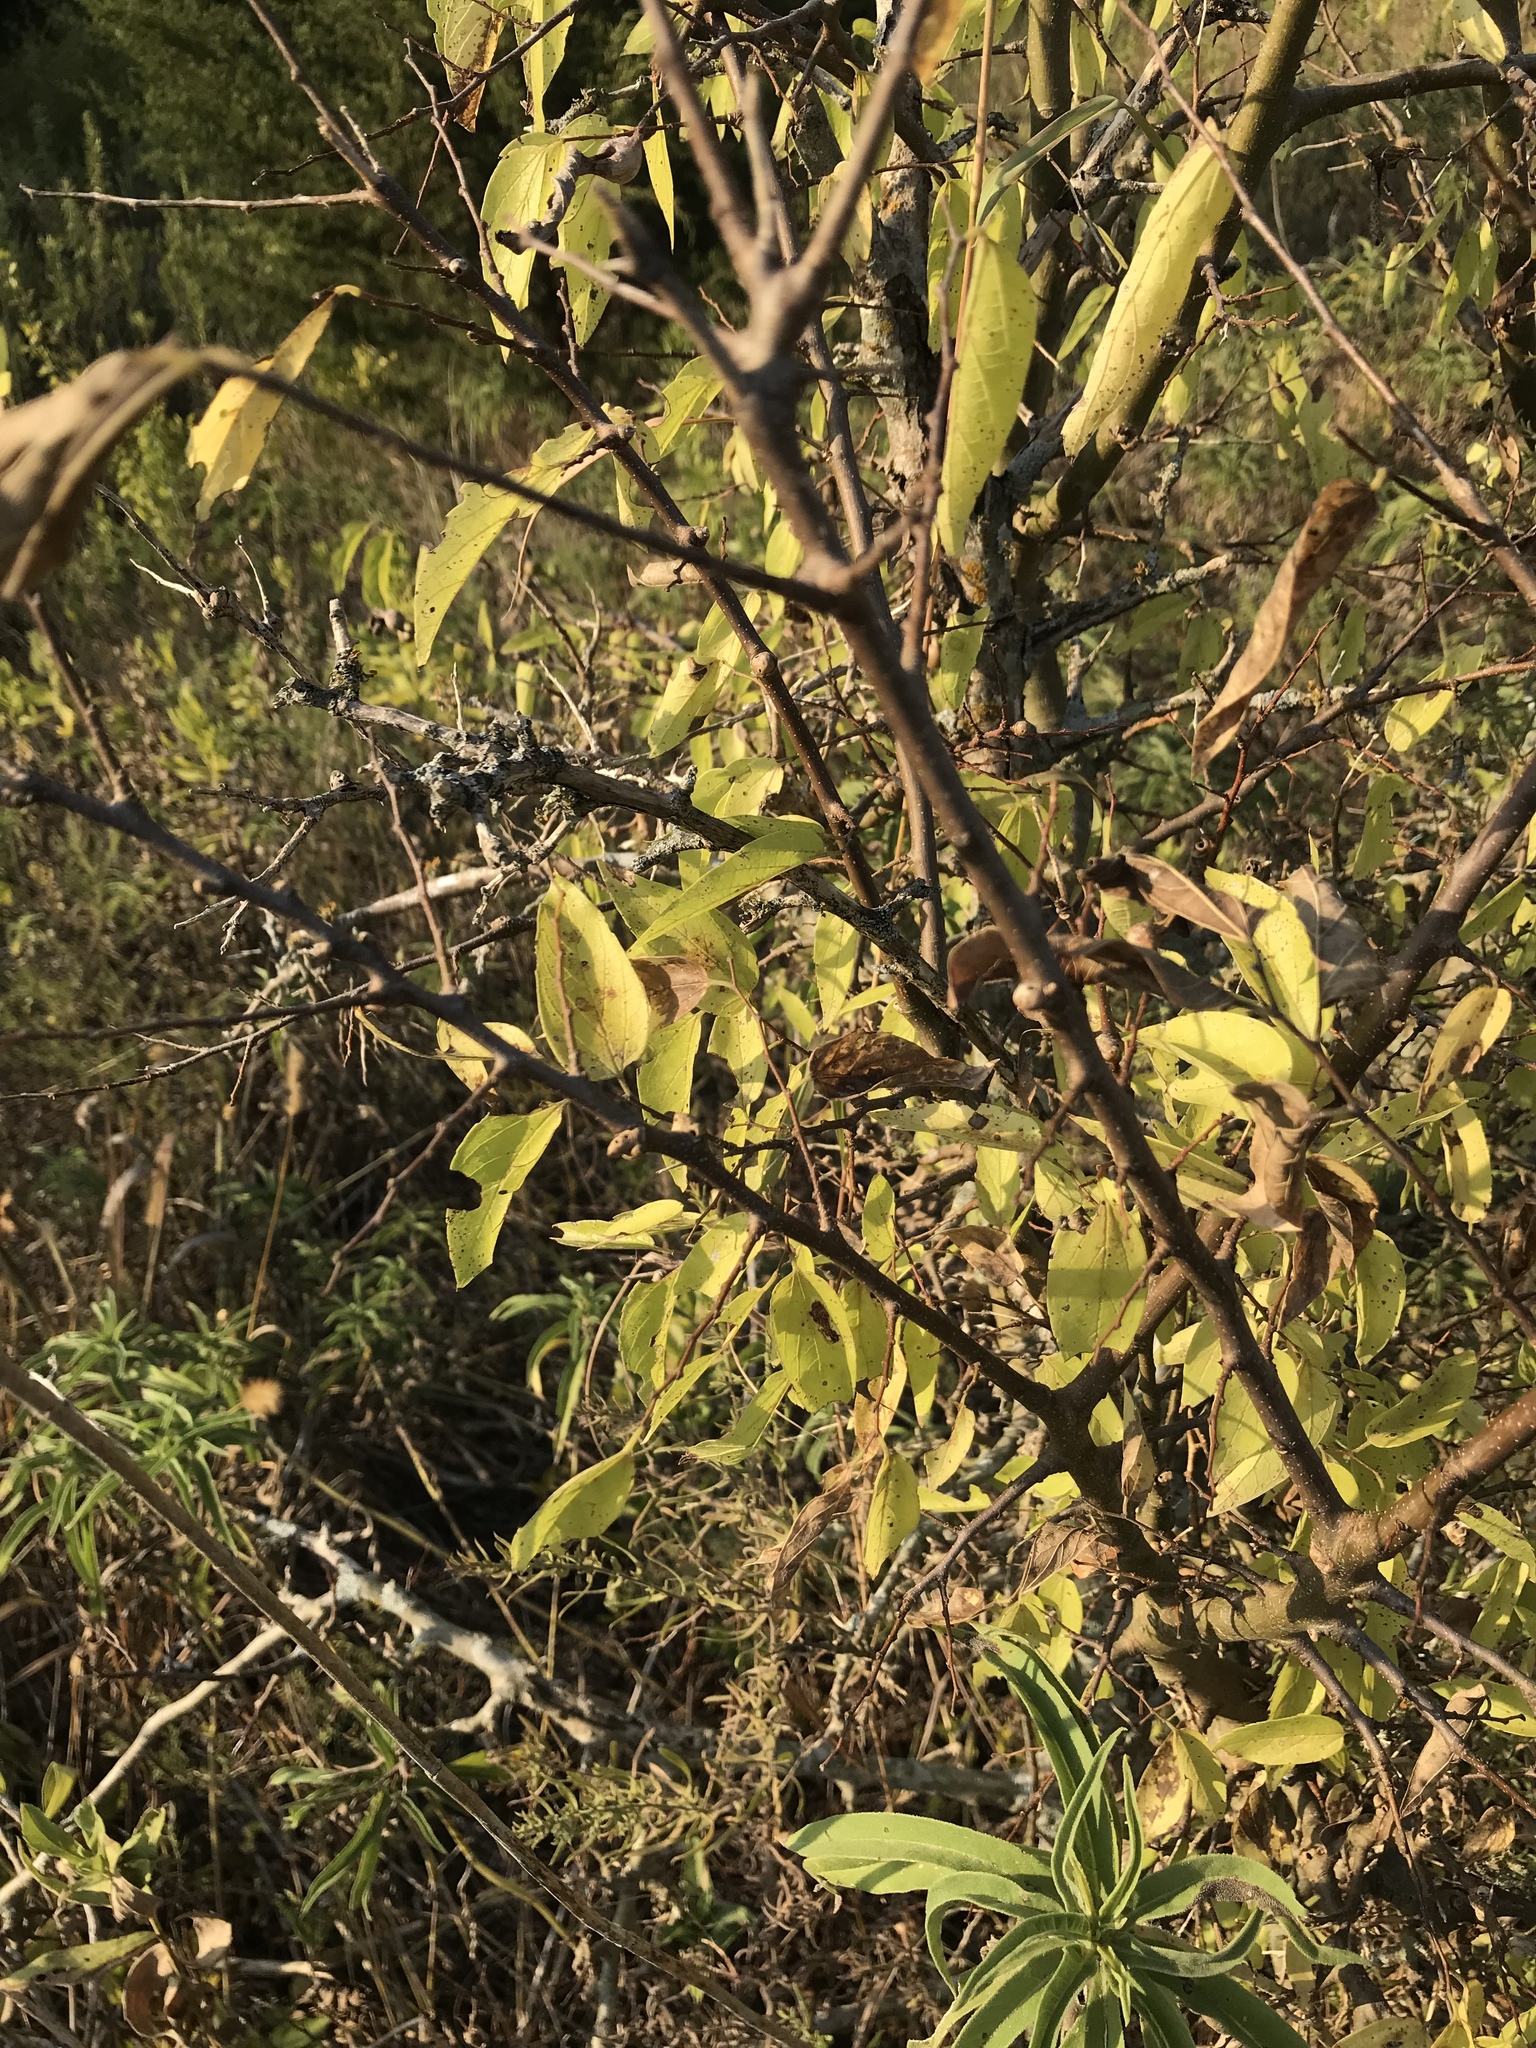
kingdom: Plantae
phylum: Tracheophyta
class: Magnoliopsida
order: Rosales
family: Cannabaceae
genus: Celtis
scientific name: Celtis laevigata
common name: Sugarberry
